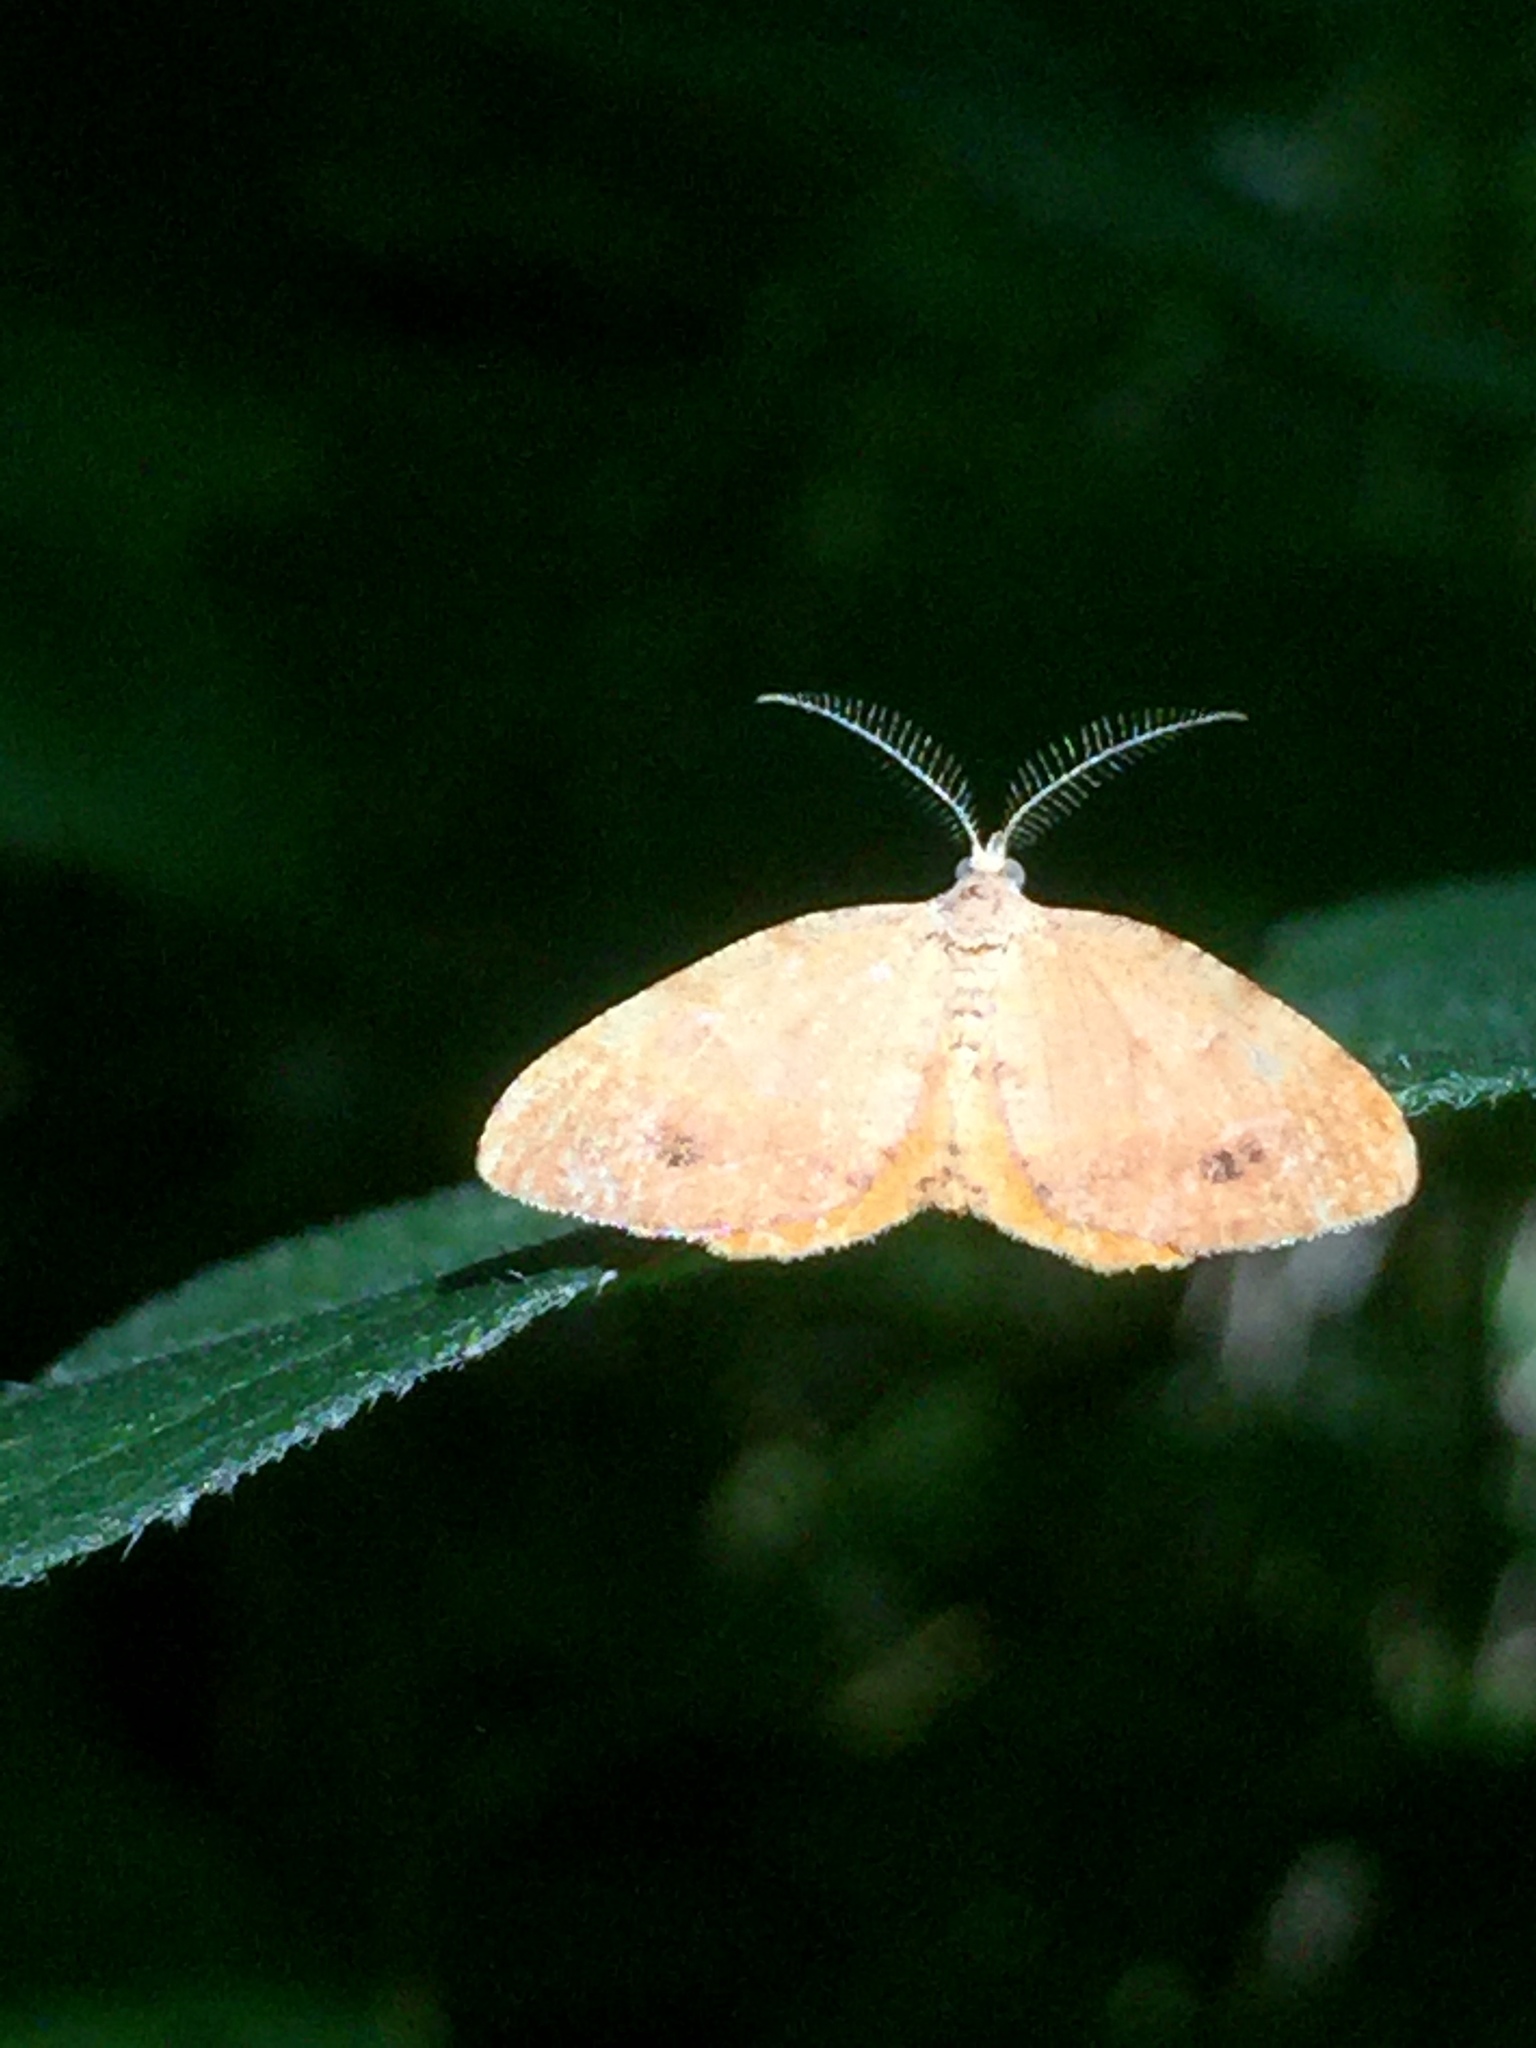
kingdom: Animalia
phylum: Arthropoda
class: Insecta
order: Lepidoptera
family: Geometridae
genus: Mellilla
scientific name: Mellilla xanthometata
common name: Orange wing moth
